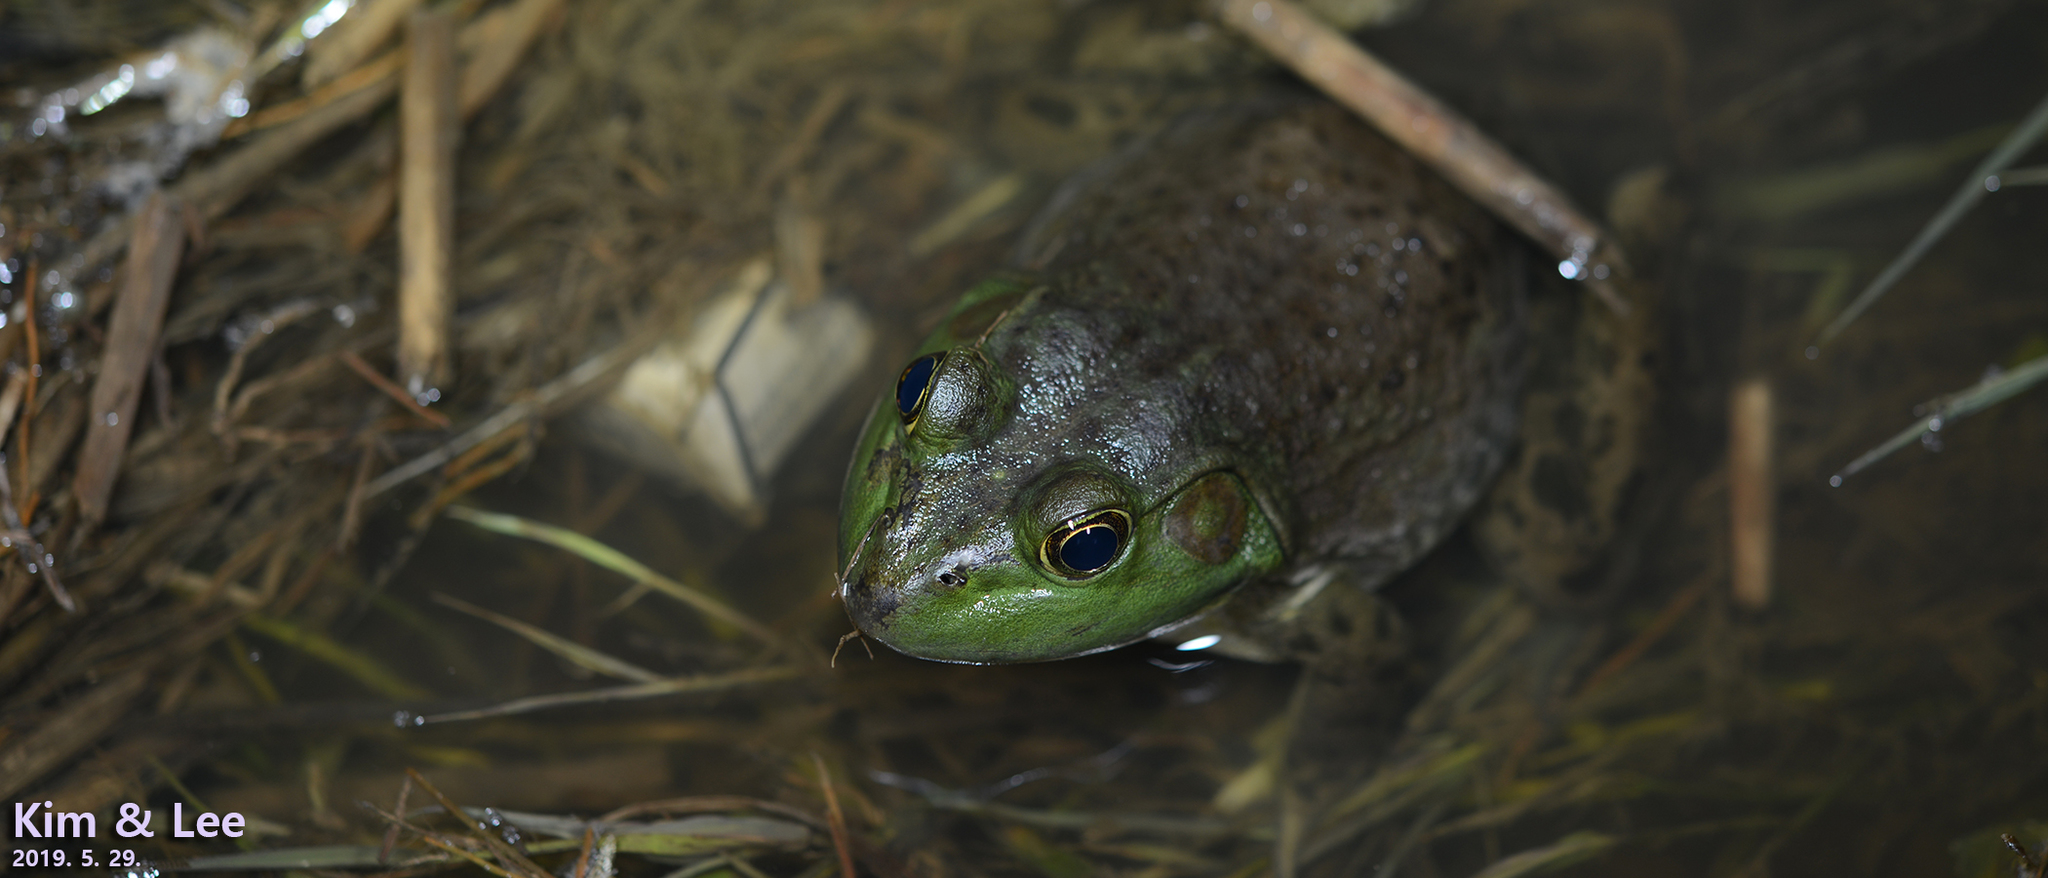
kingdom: Animalia
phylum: Chordata
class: Amphibia
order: Anura
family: Ranidae
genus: Lithobates
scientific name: Lithobates catesbeianus
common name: American bullfrog
